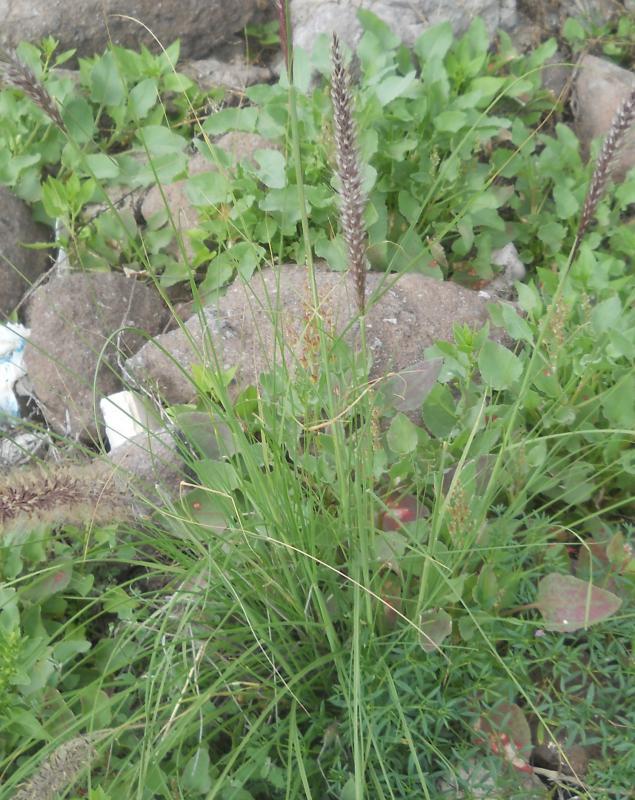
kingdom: Plantae
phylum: Tracheophyta
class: Liliopsida
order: Poales
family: Poaceae
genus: Cenchrus
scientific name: Cenchrus setaceus
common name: Crimson fountaingrass
